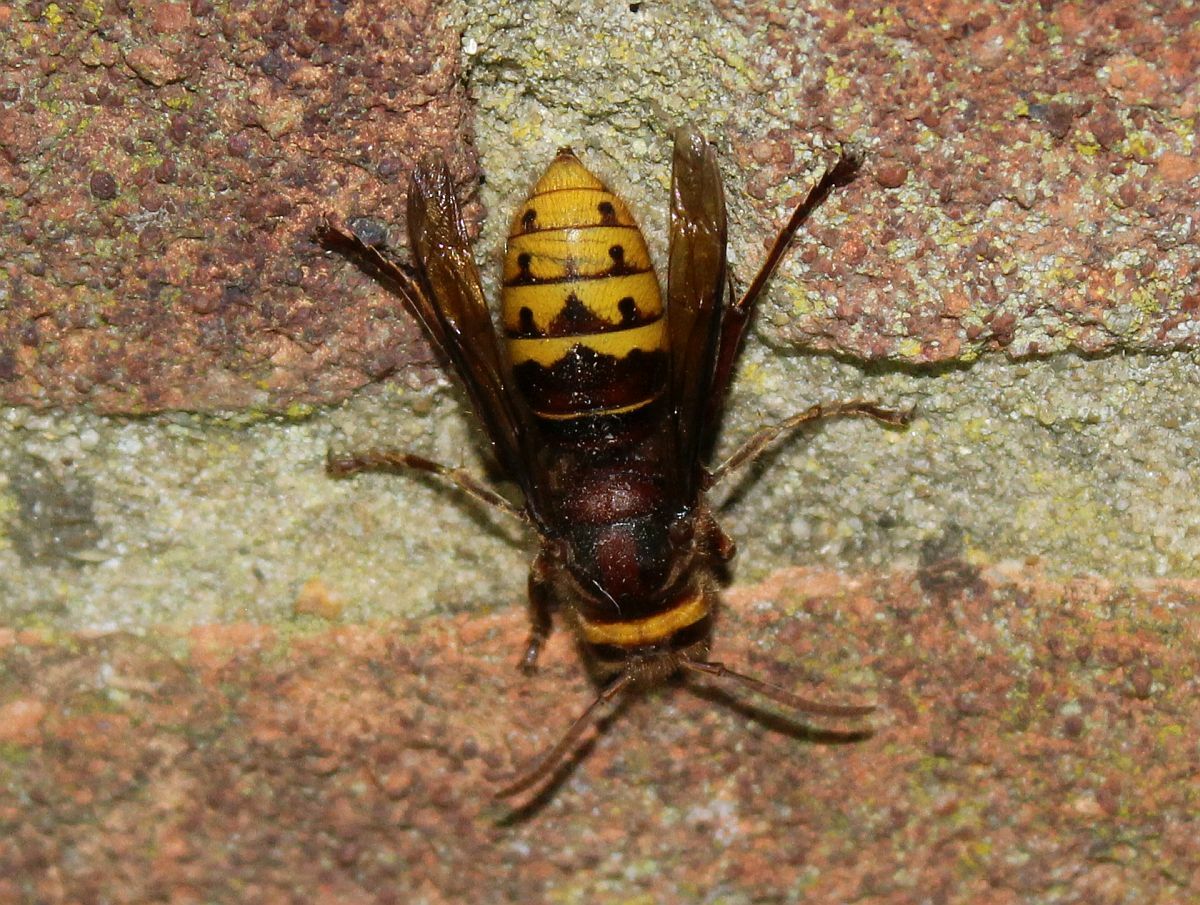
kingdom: Animalia
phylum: Arthropoda
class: Insecta
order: Hymenoptera
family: Vespidae
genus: Vespa
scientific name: Vespa crabro
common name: Hornet
